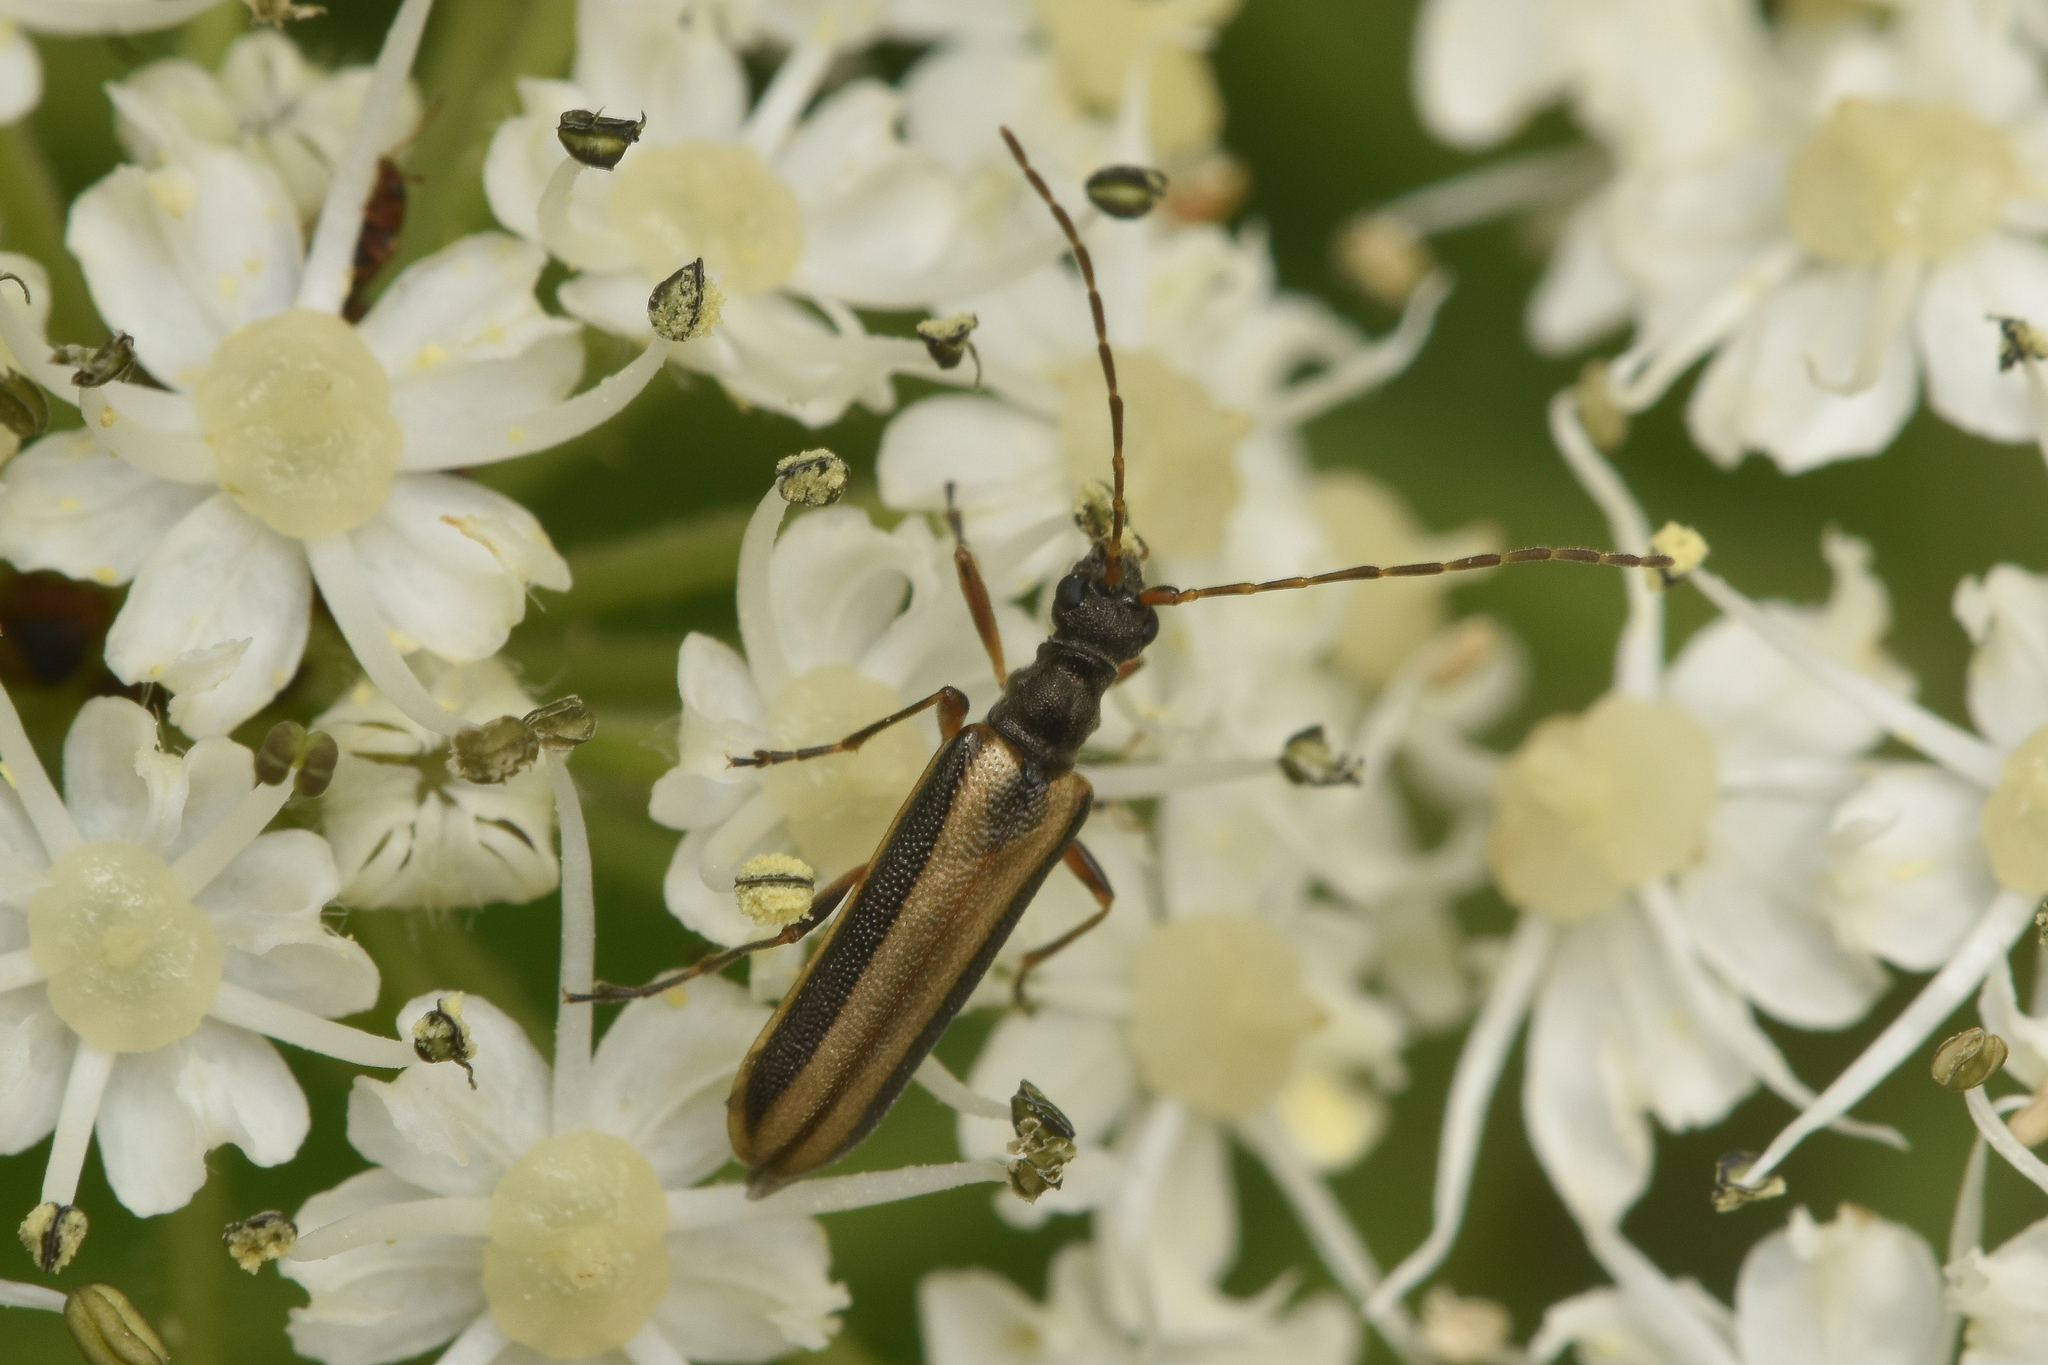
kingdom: Animalia
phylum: Arthropoda
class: Insecta
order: Coleoptera
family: Cerambycidae
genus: Leptalia
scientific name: Leptalia macilenta
